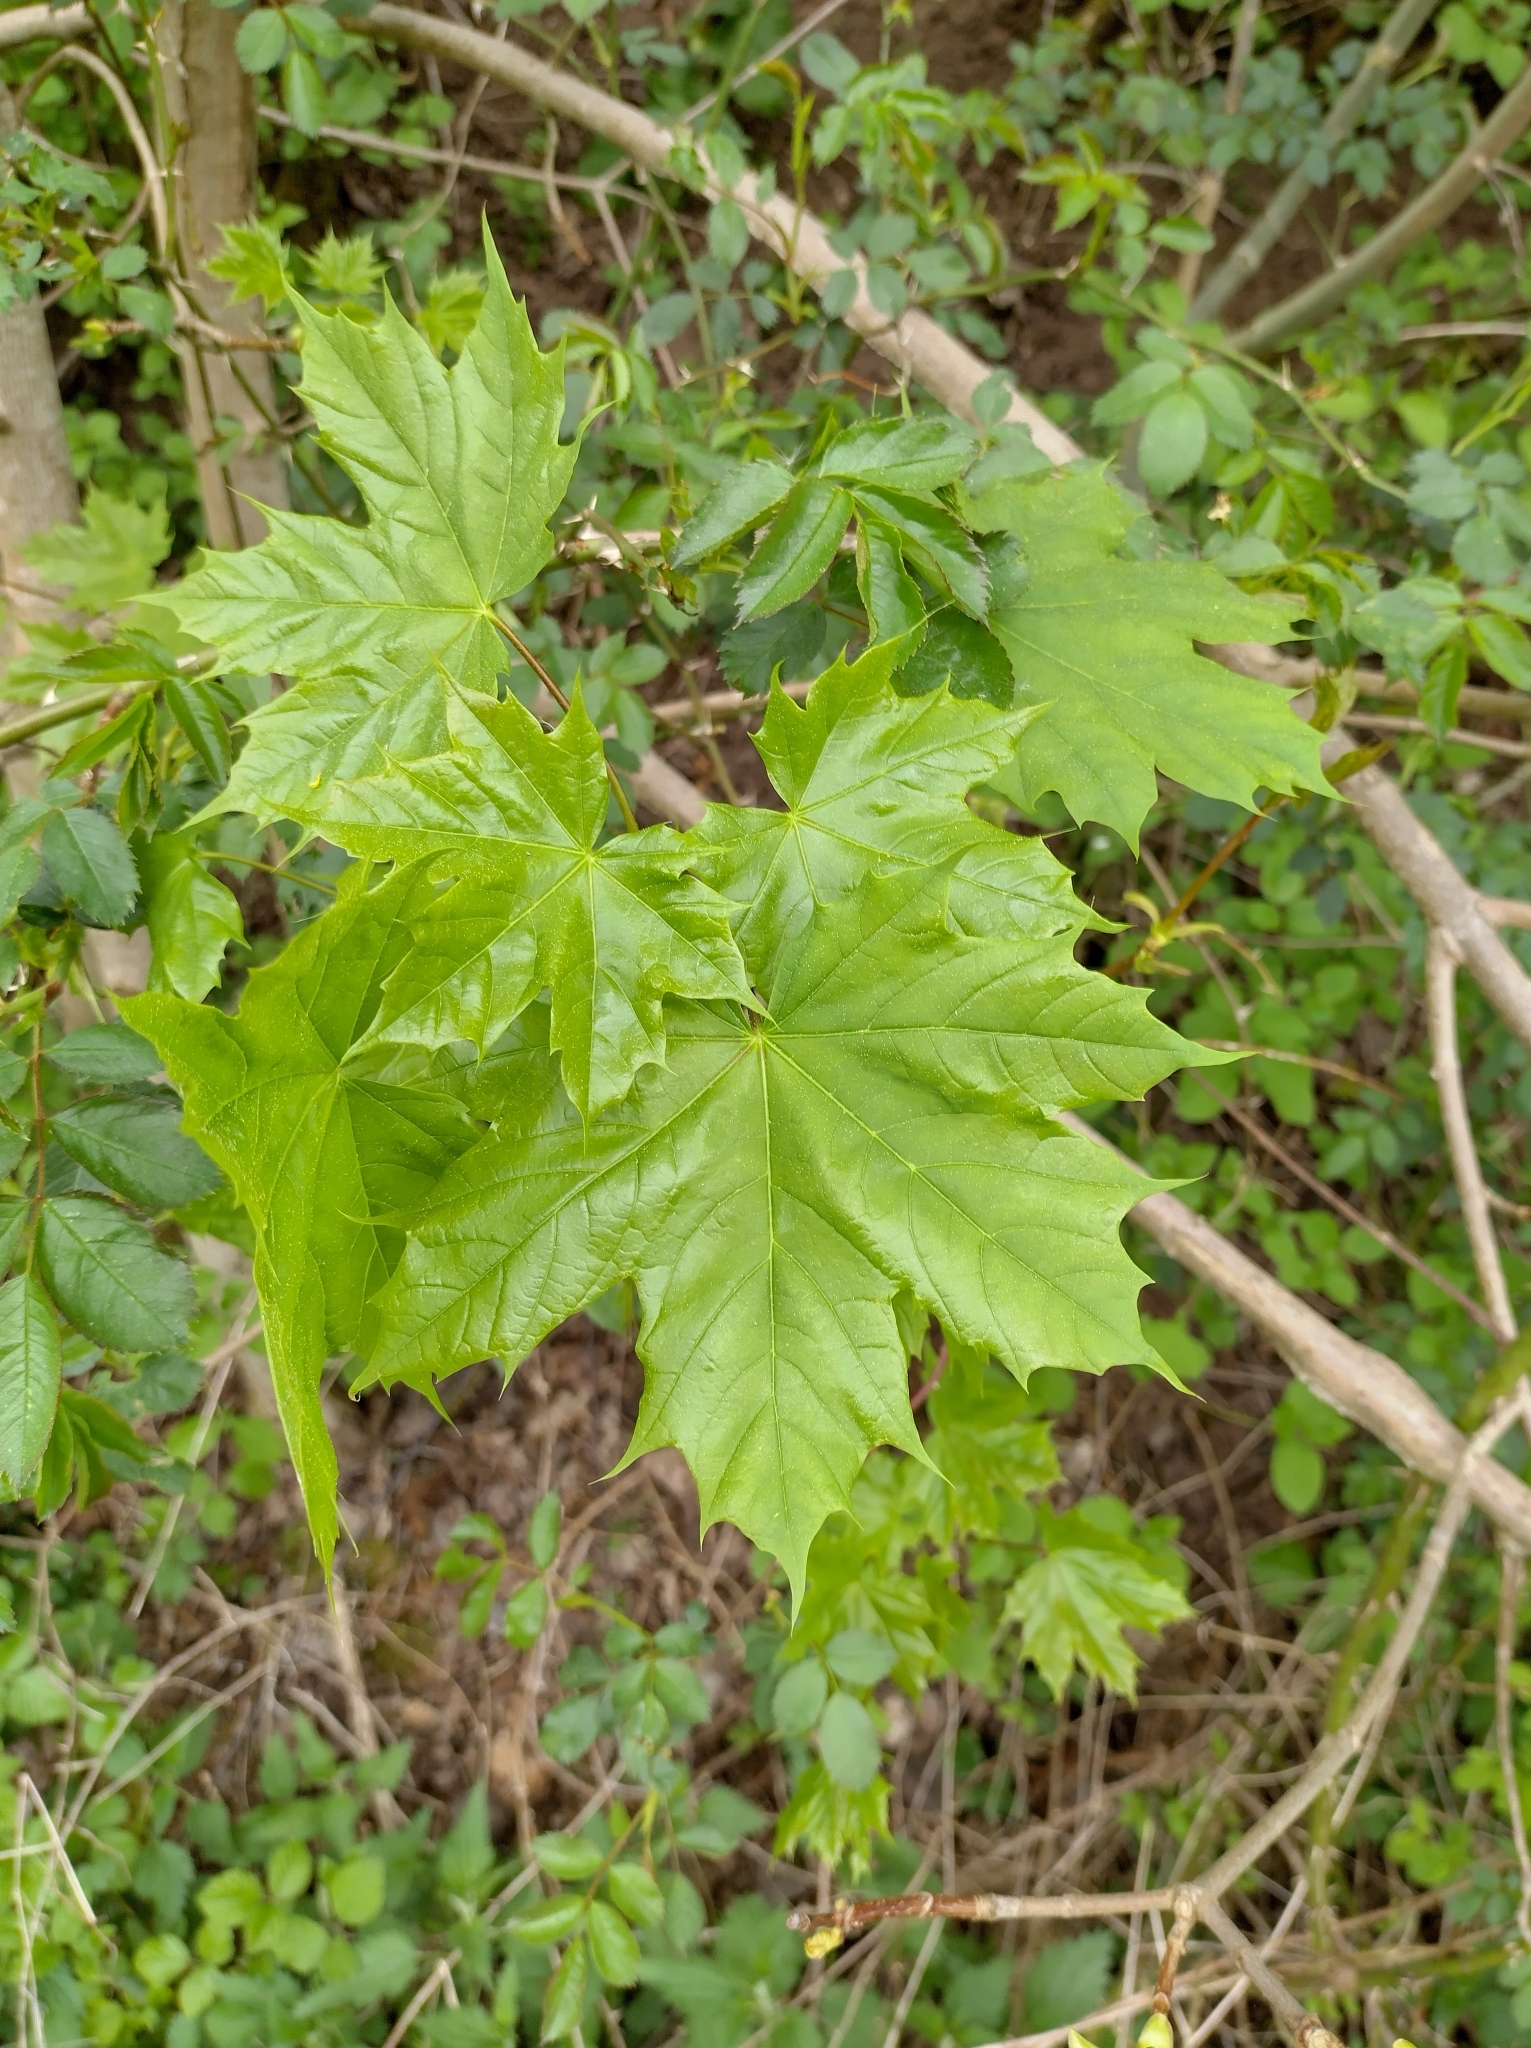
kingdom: Plantae
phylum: Tracheophyta
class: Magnoliopsida
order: Sapindales
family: Sapindaceae
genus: Acer
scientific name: Acer platanoides
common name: Norway maple
